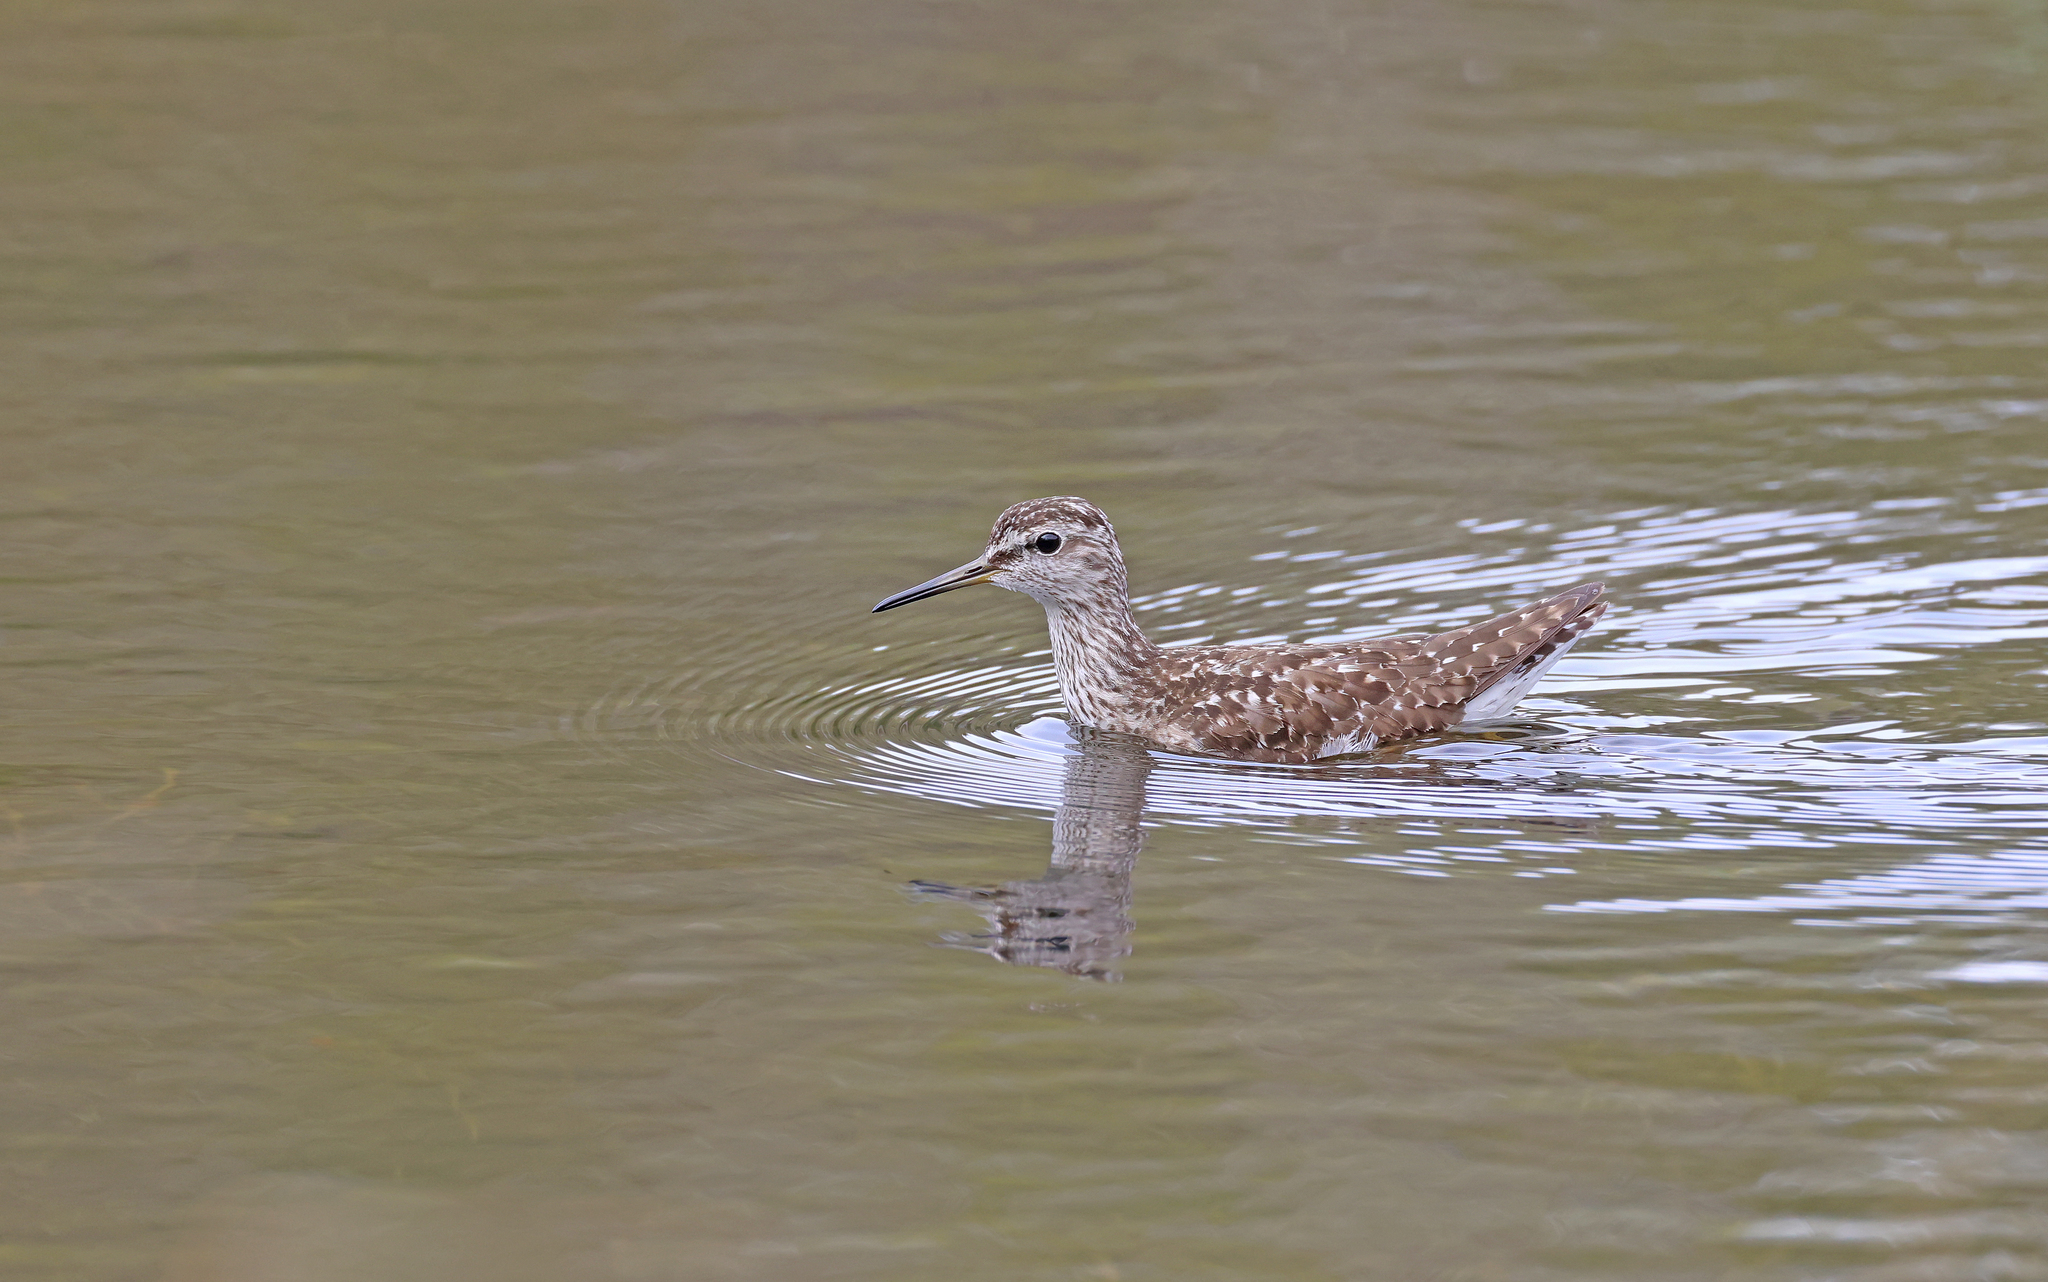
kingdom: Animalia
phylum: Chordata
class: Aves
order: Charadriiformes
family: Scolopacidae
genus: Tringa
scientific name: Tringa glareola
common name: Wood sandpiper
